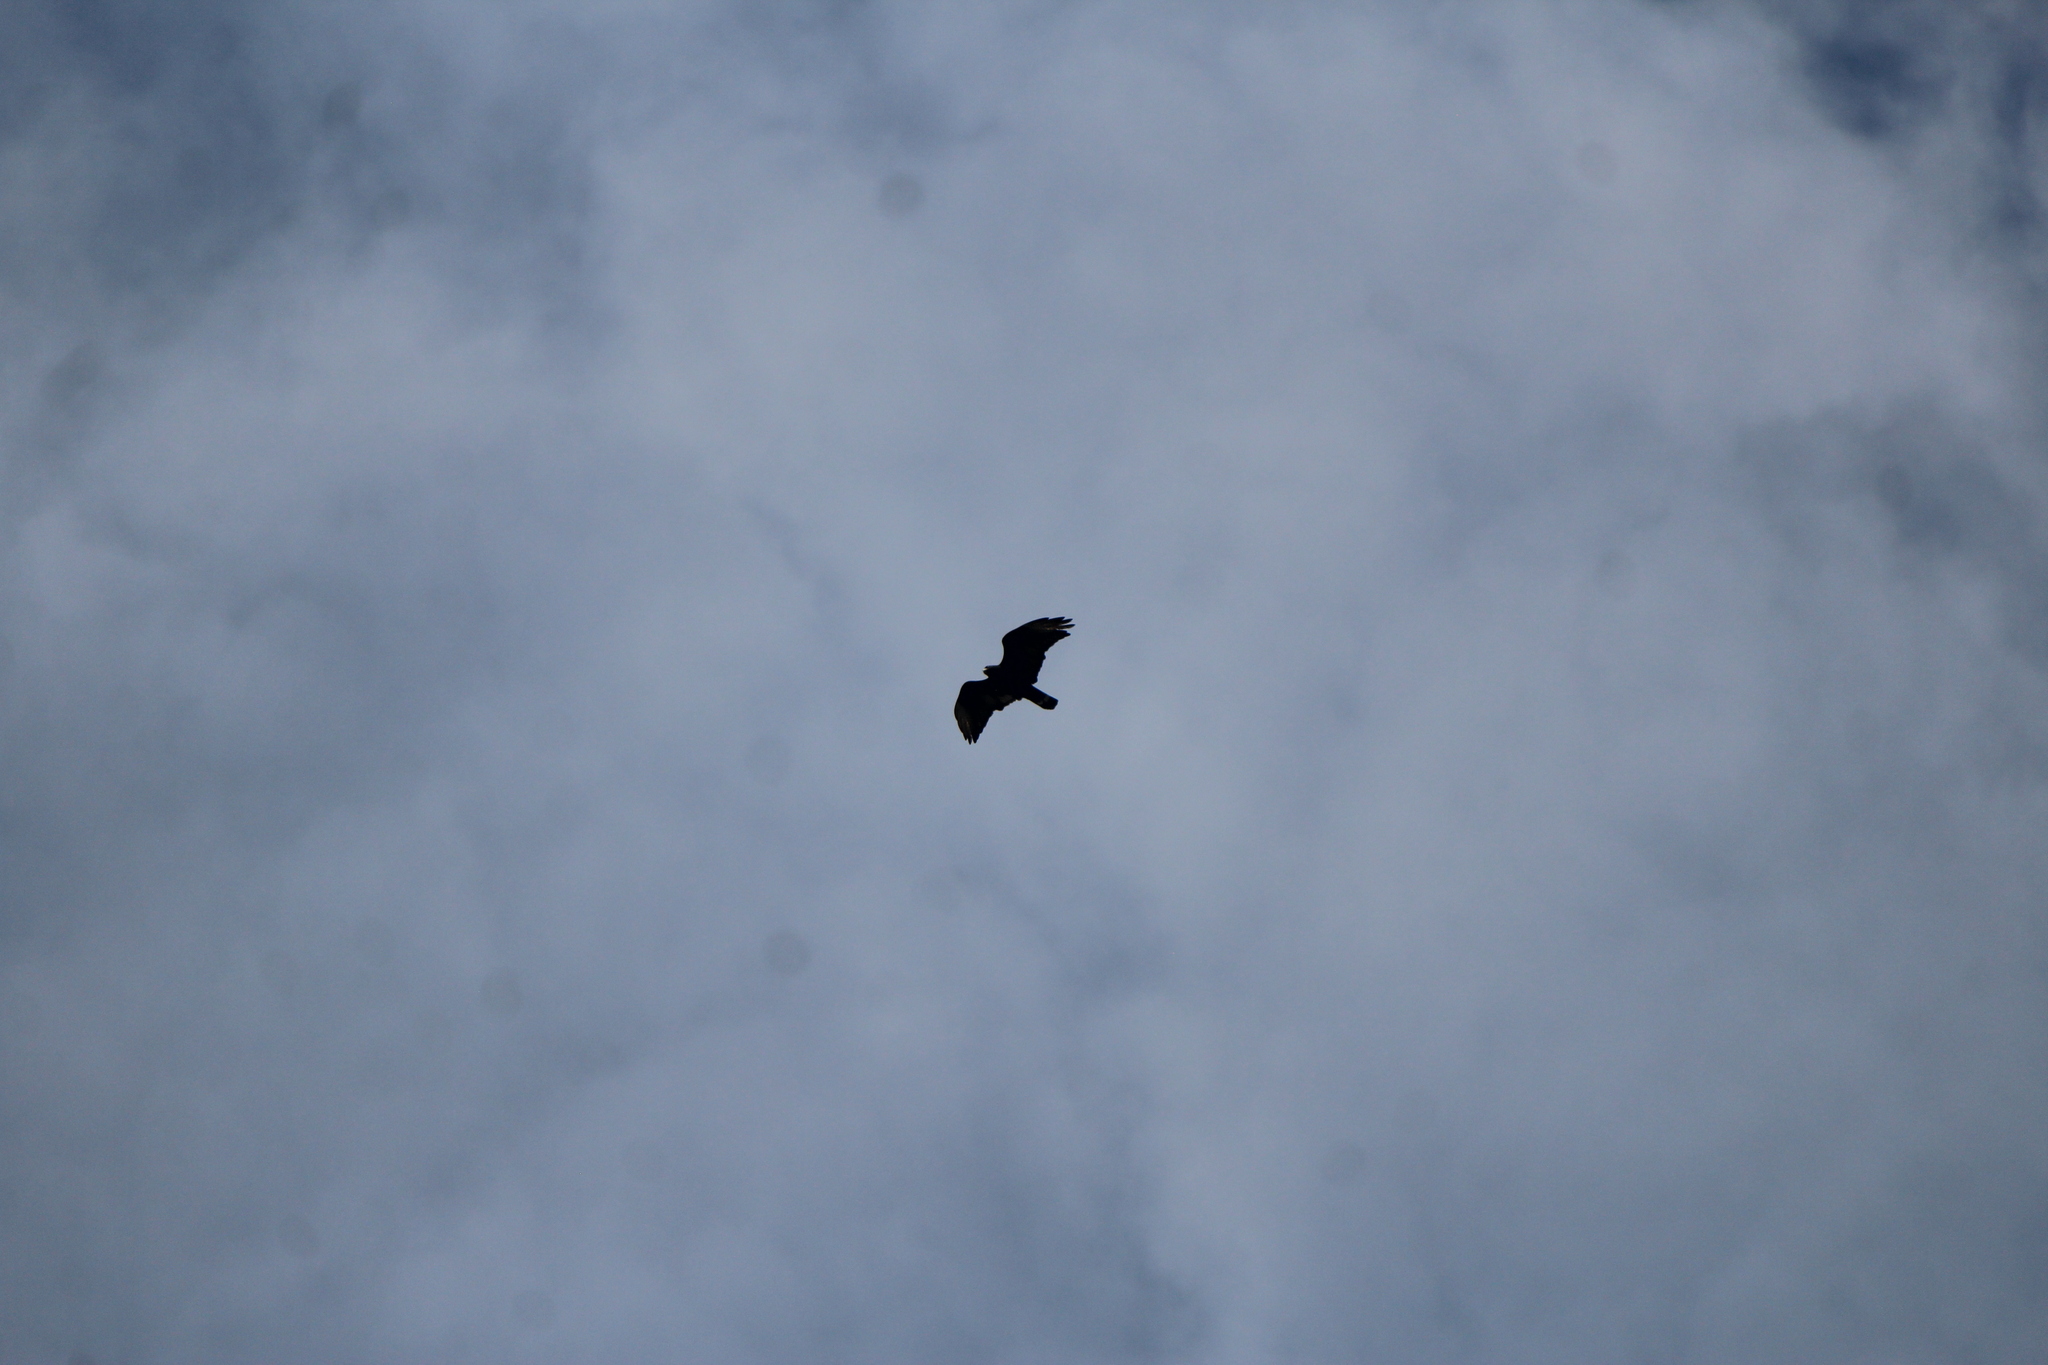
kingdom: Animalia
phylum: Chordata
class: Aves
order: Accipitriformes
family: Accipitridae
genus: Buteo
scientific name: Buteo albonotatus
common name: Zone-tailed hawk
